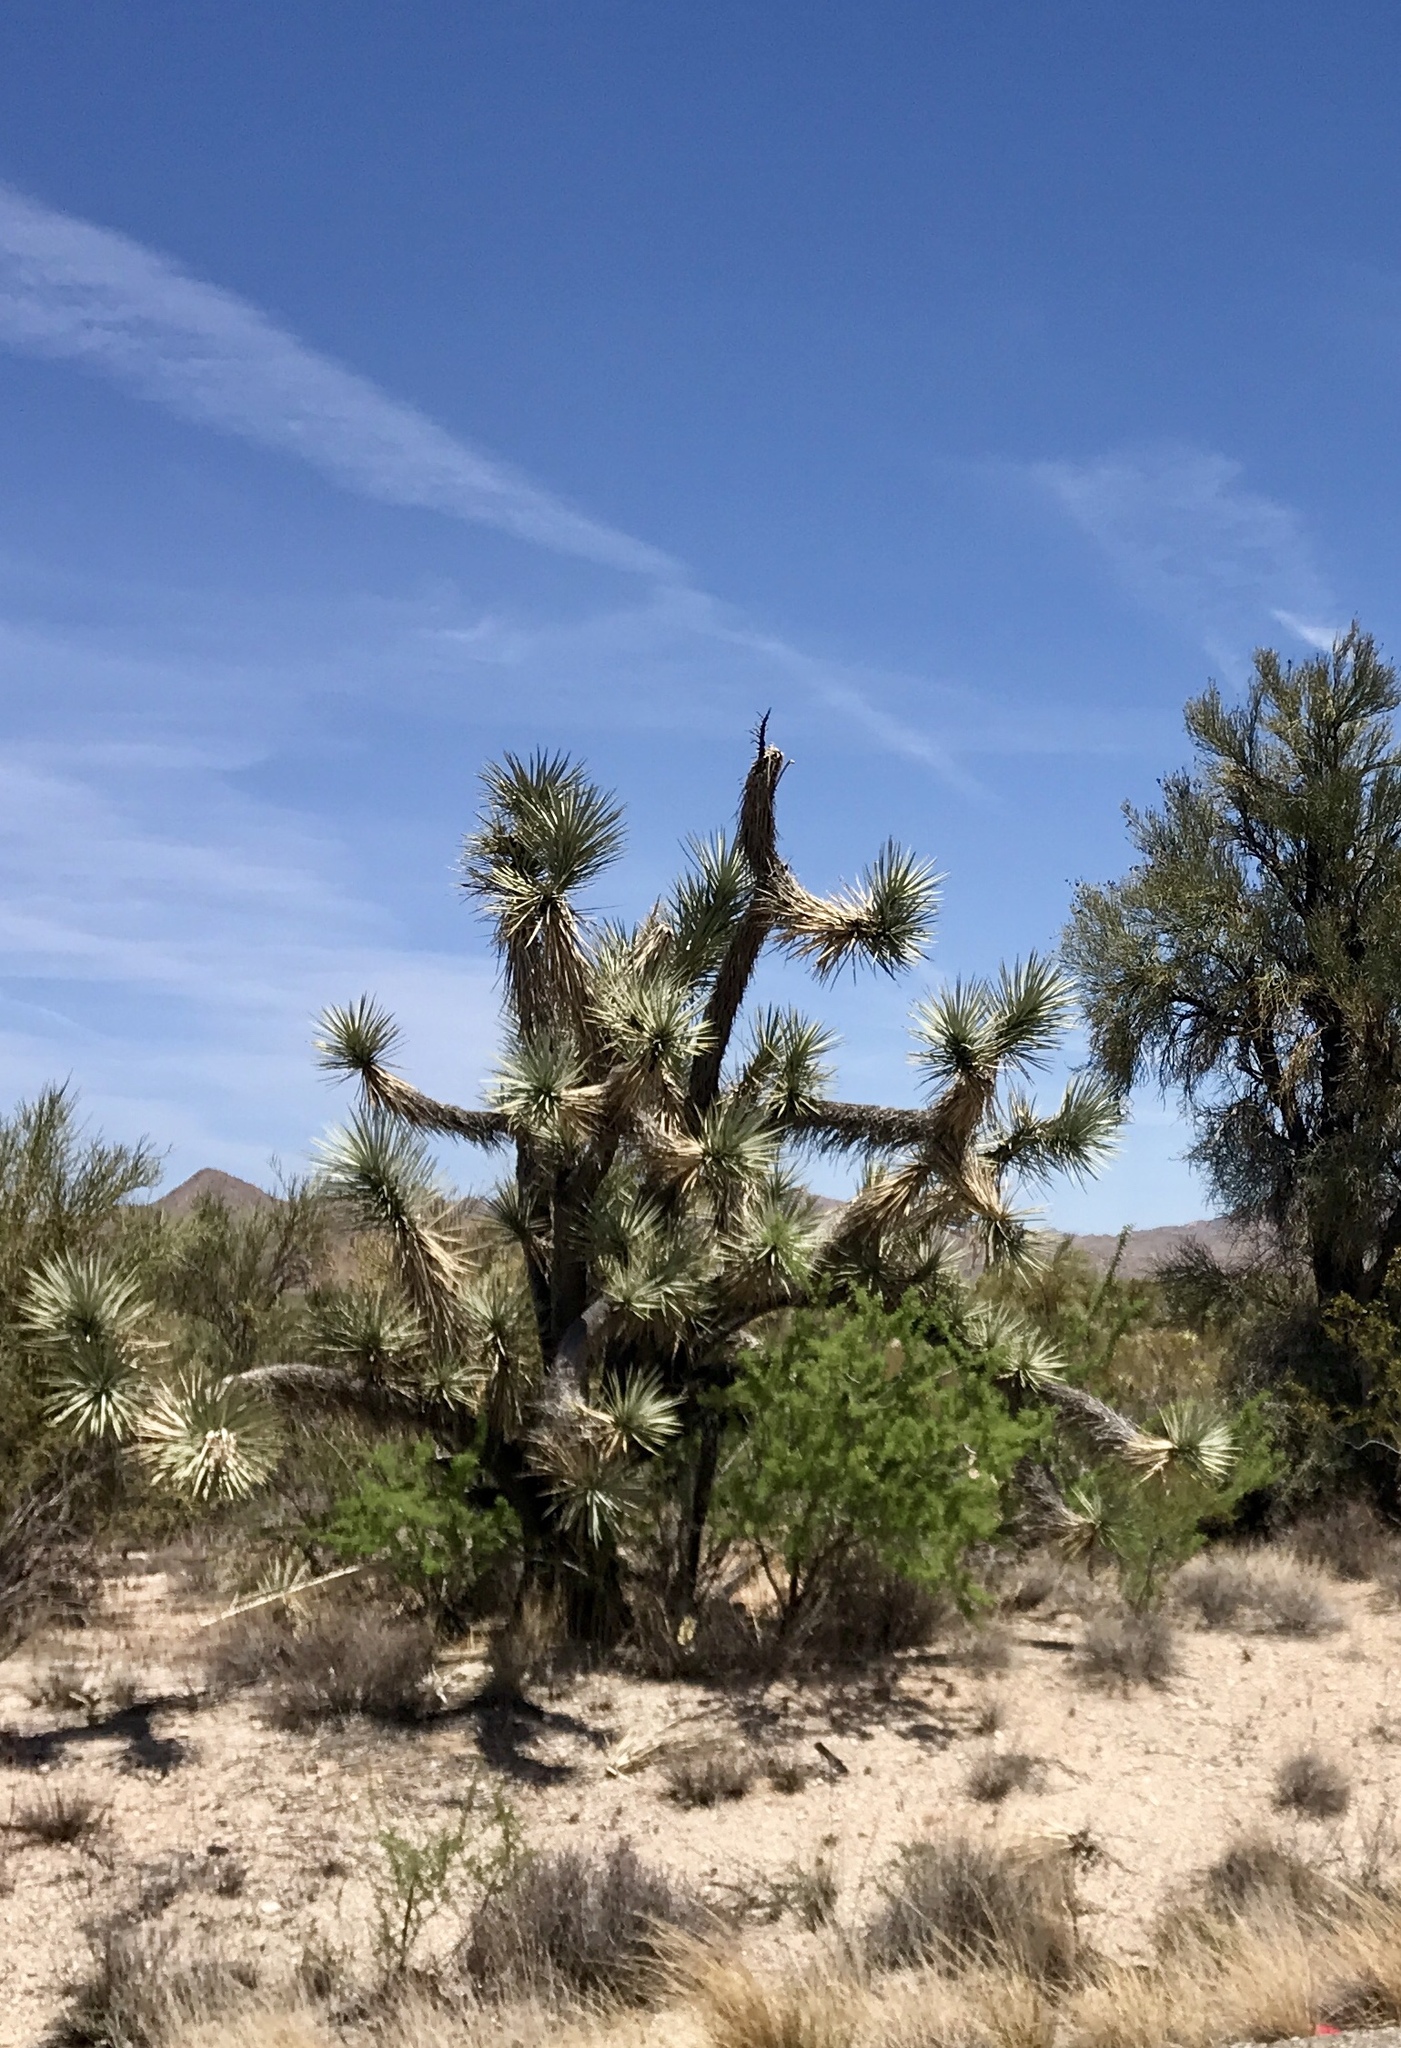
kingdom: Plantae
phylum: Tracheophyta
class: Liliopsida
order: Asparagales
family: Asparagaceae
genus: Yucca
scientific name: Yucca brevifolia
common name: Joshua tree
